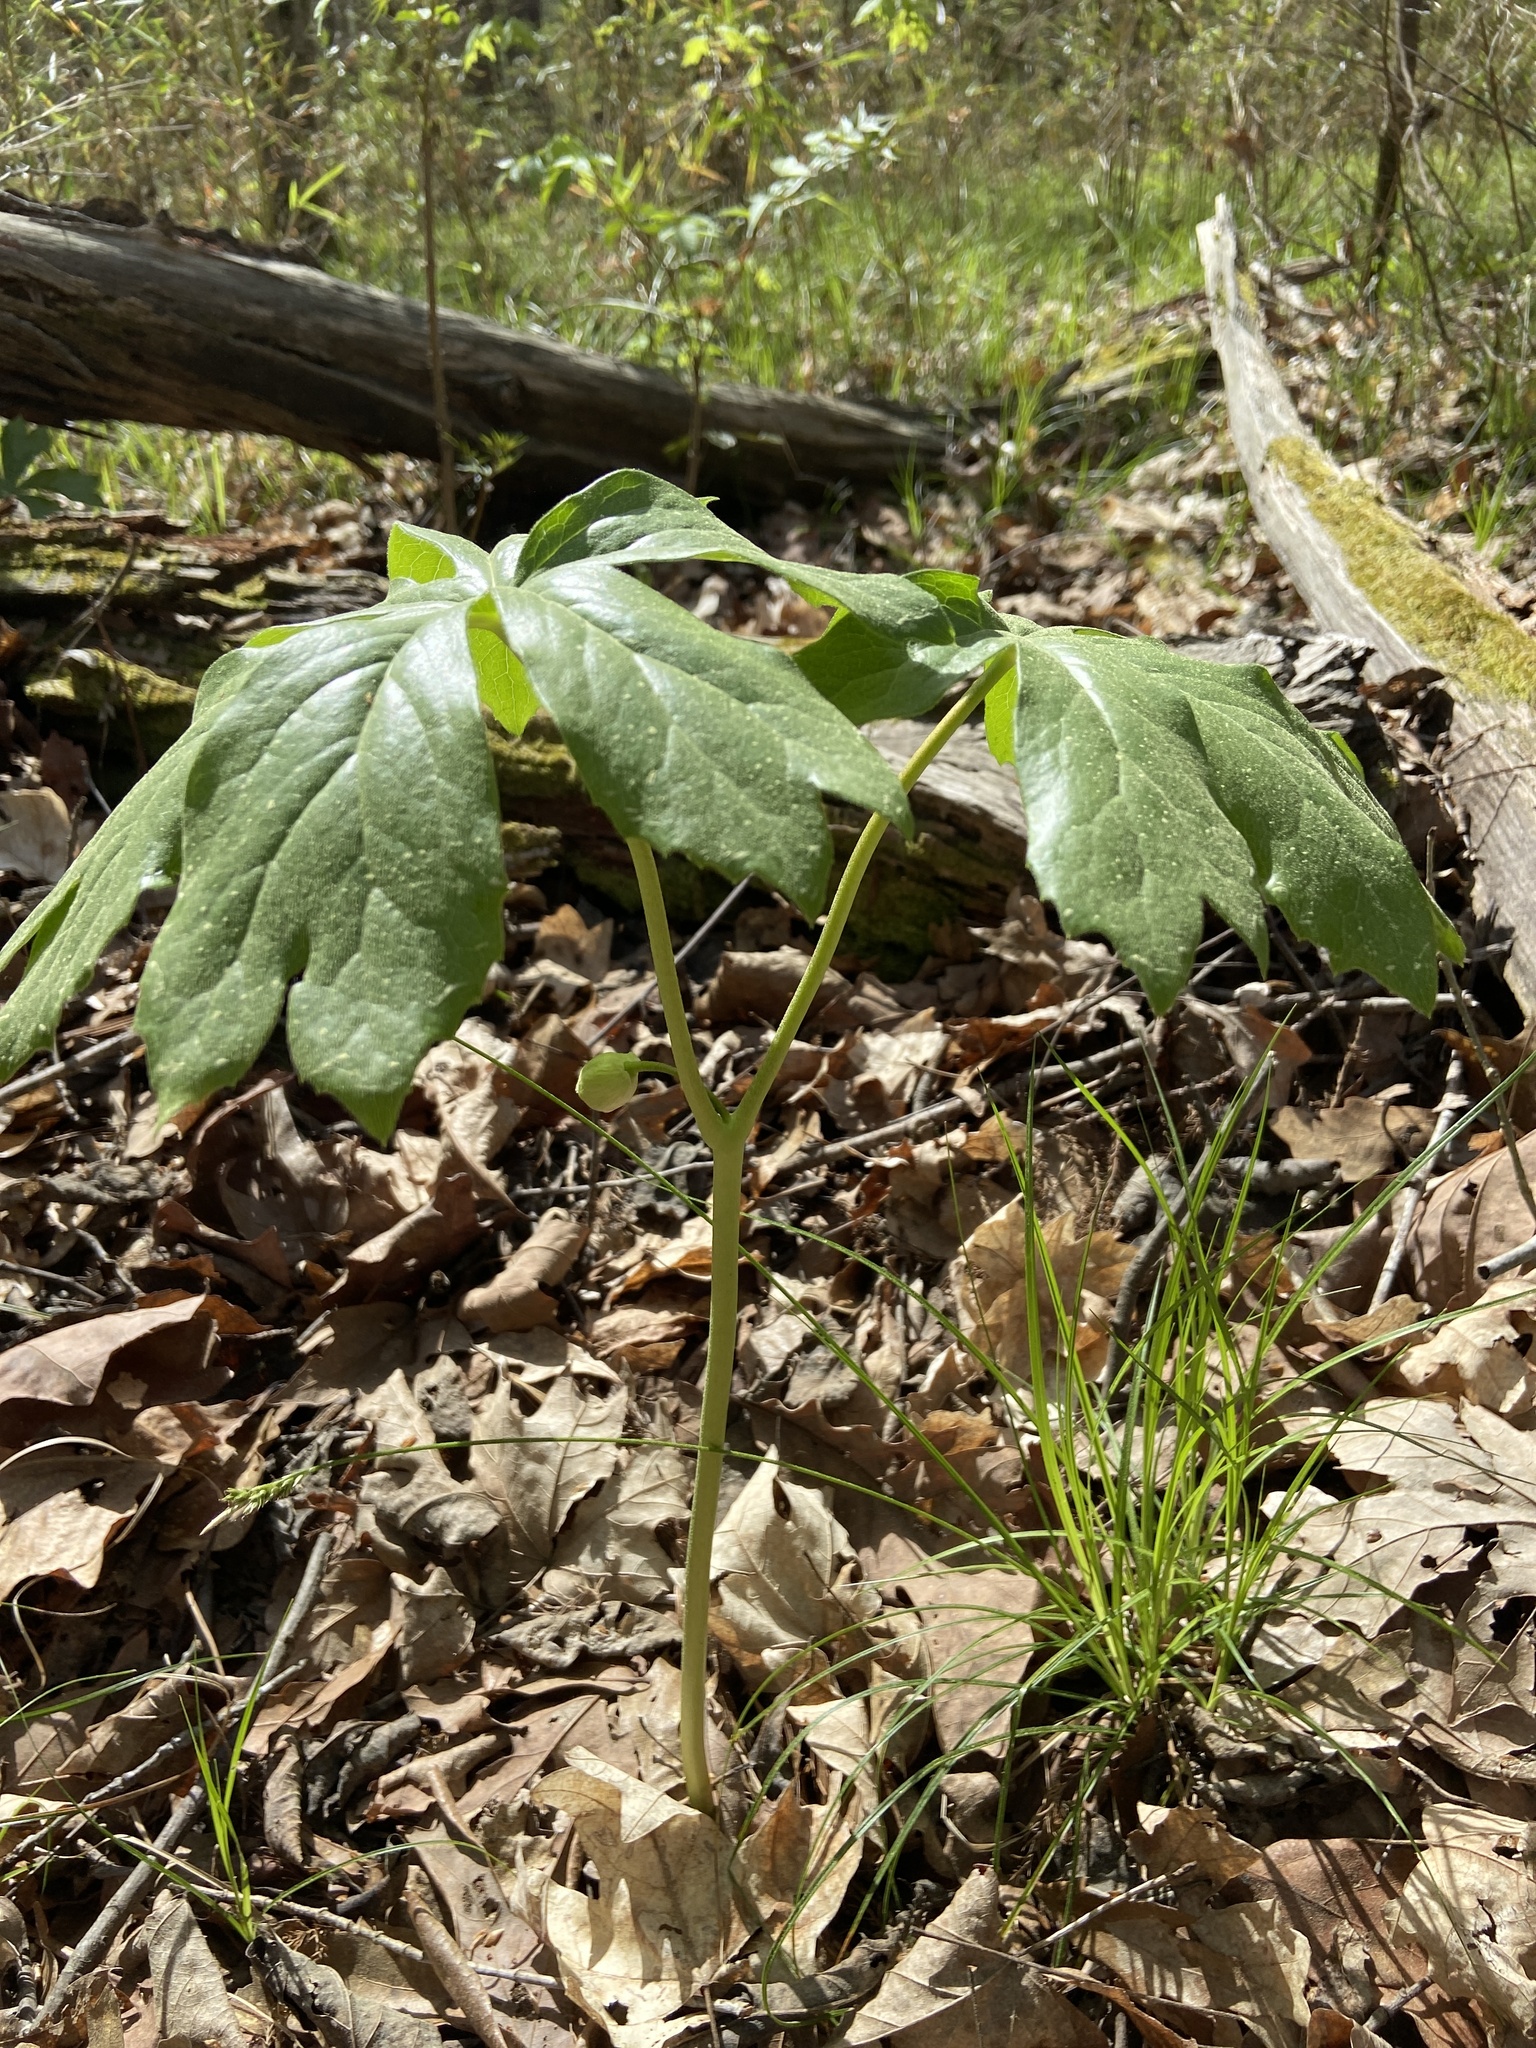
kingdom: Plantae
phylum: Tracheophyta
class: Magnoliopsida
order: Ranunculales
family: Berberidaceae
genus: Podophyllum
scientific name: Podophyllum peltatum
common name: Wild mandrake
